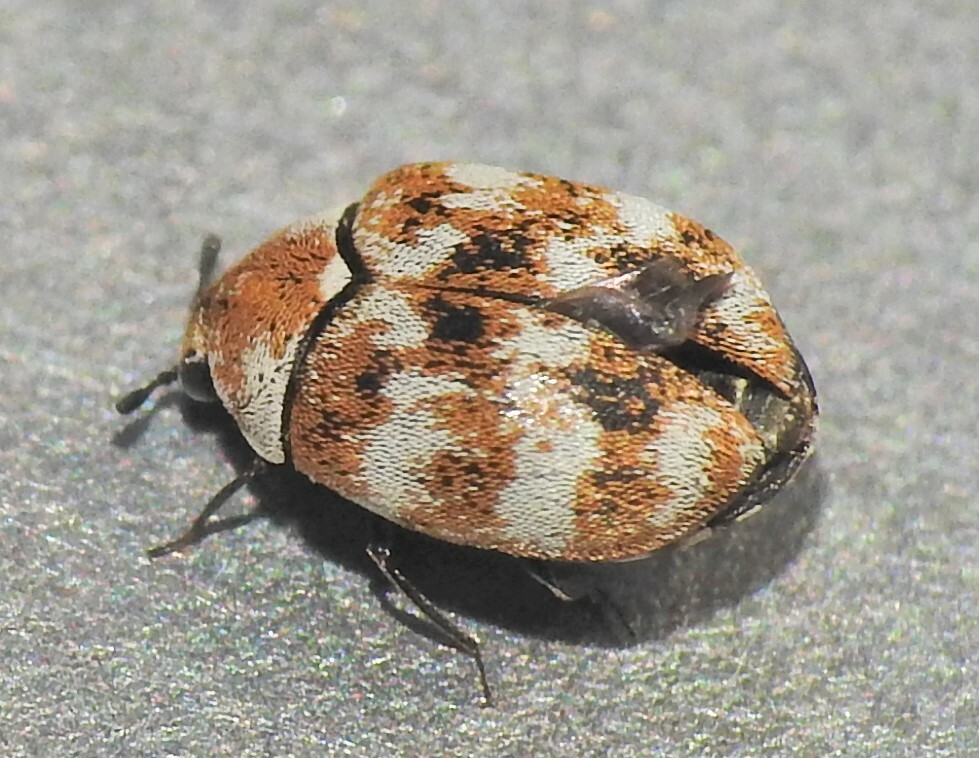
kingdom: Animalia
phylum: Arthropoda
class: Insecta
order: Coleoptera
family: Dermestidae
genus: Anthrenus
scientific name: Anthrenus verbasci
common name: Varied carpet beetle
